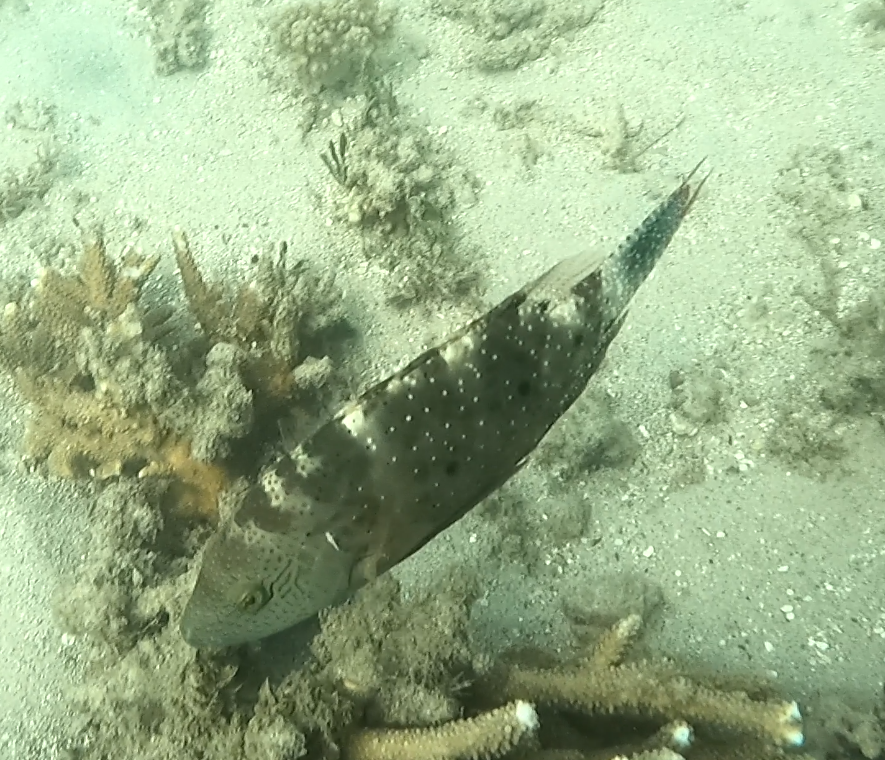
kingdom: Animalia
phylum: Chordata
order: Perciformes
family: Labridae
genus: Cheilinus
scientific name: Cheilinus chlorourus
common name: Floral wrasse
